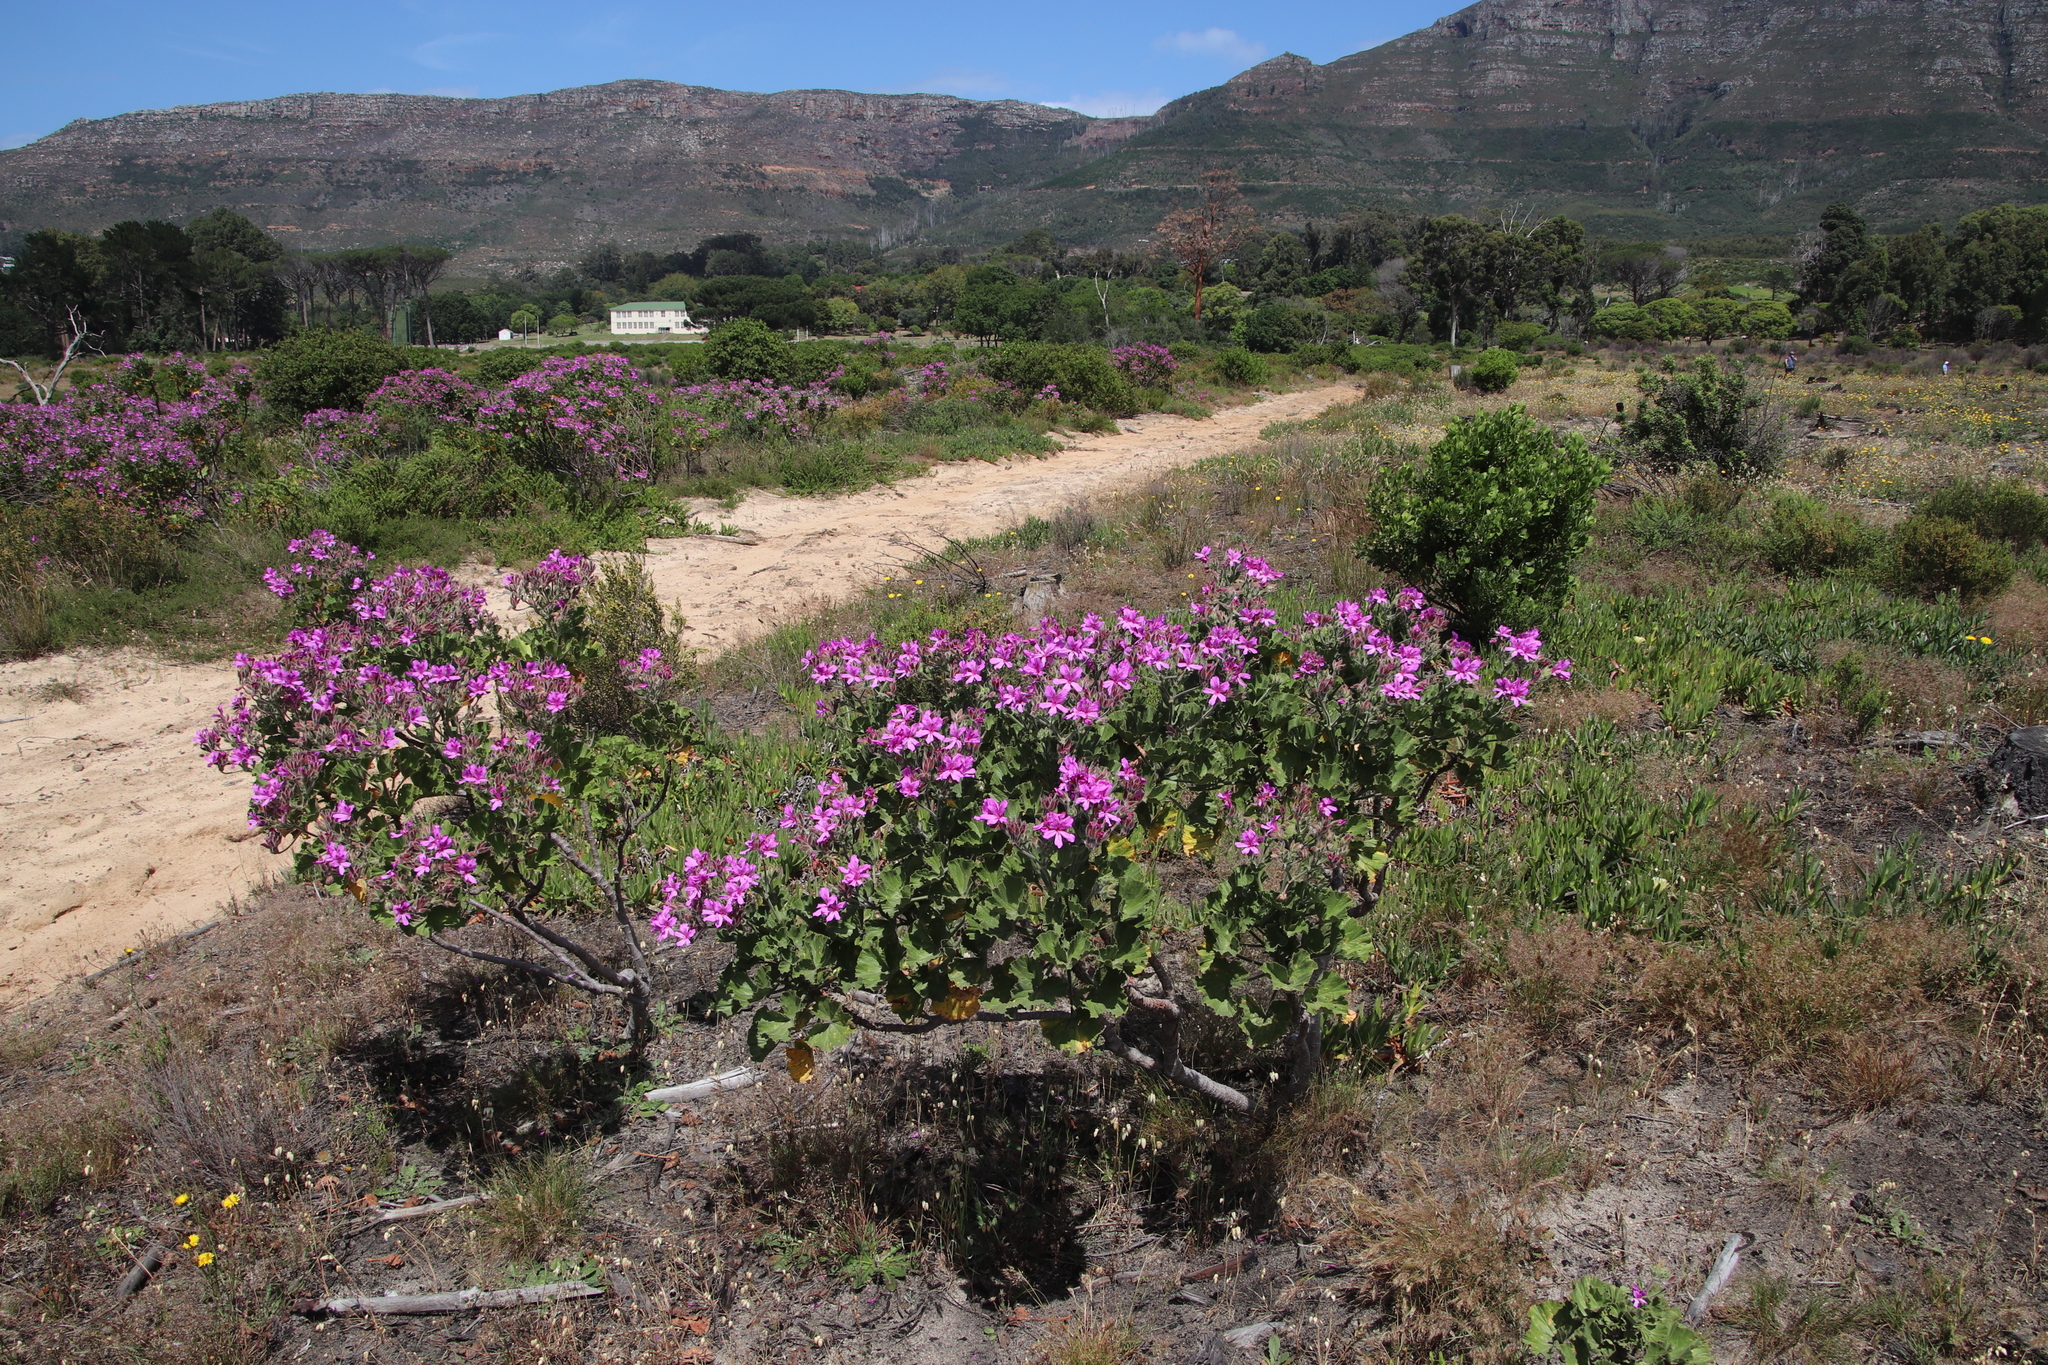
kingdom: Plantae
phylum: Tracheophyta
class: Magnoliopsida
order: Geraniales
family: Geraniaceae
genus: Pelargonium
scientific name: Pelargonium cucullatum
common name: Tree pelargonium
